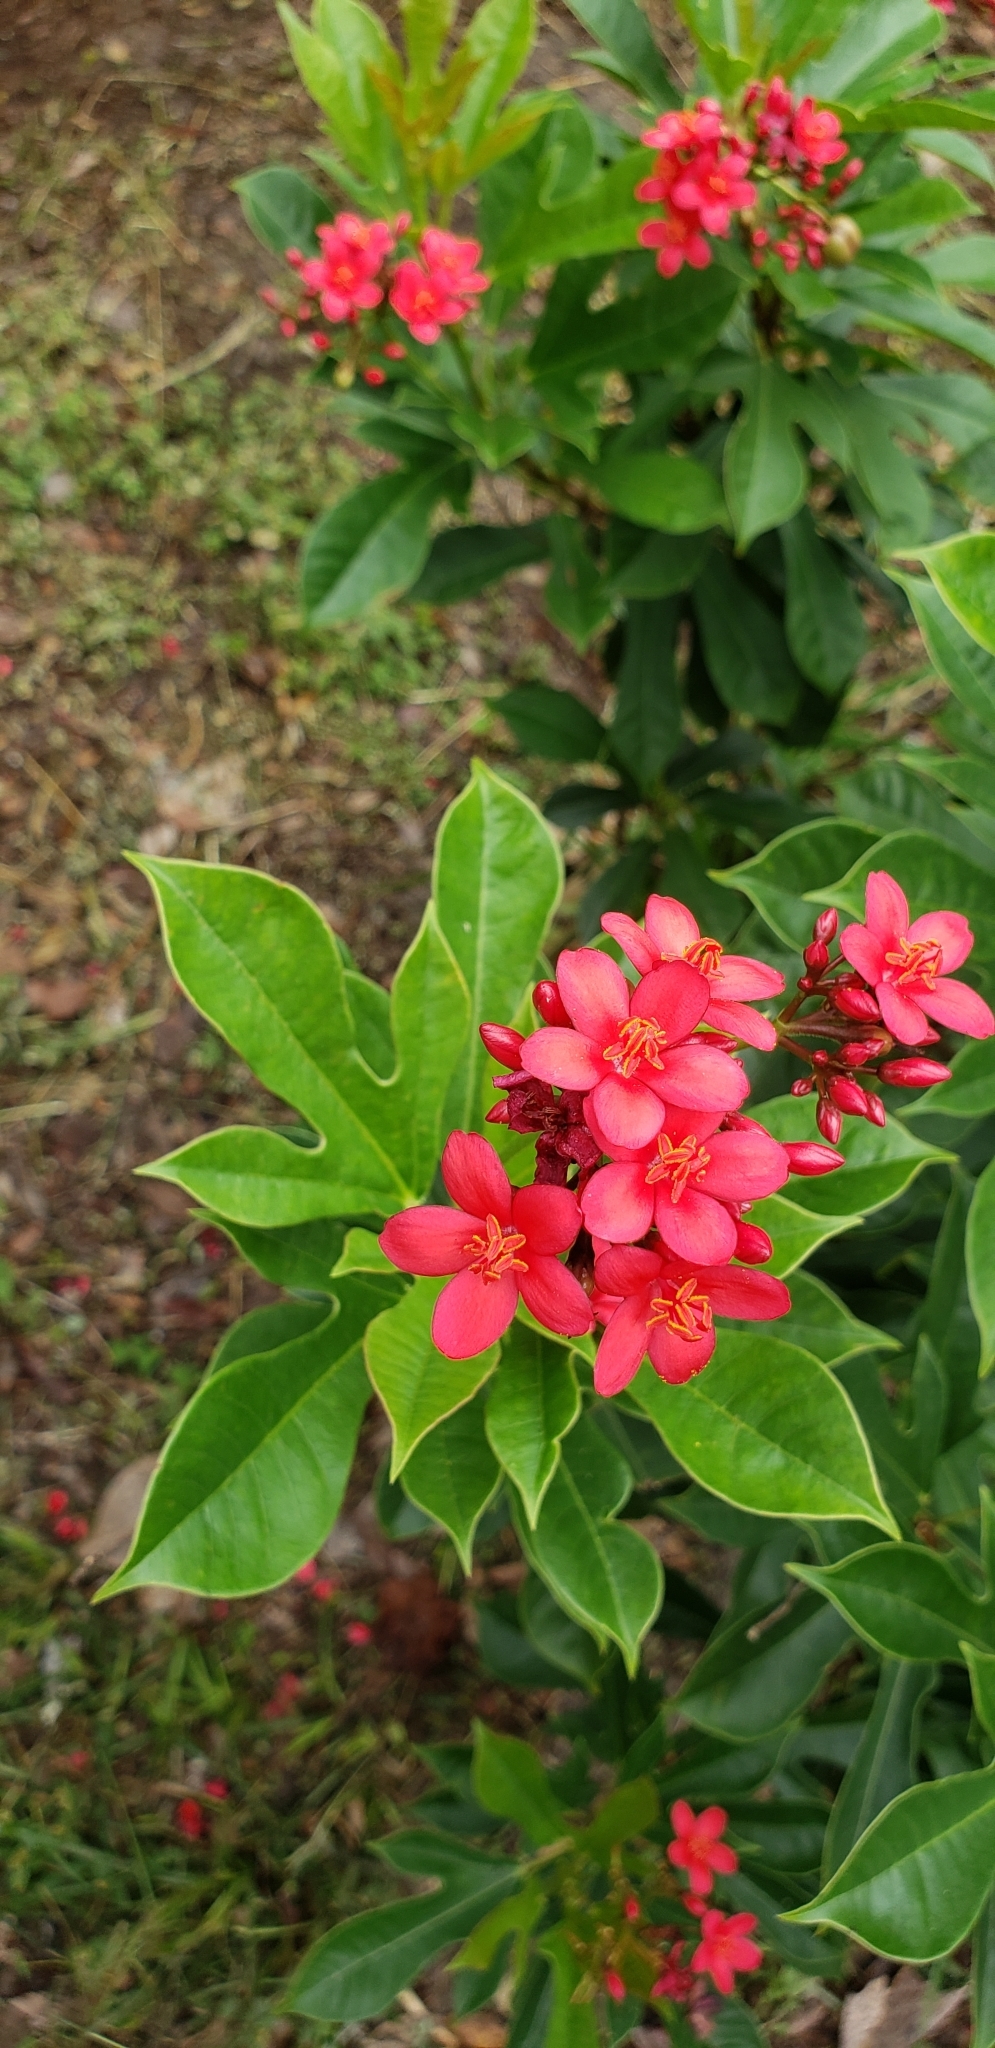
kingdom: Plantae
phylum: Tracheophyta
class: Magnoliopsida
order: Malpighiales
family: Euphorbiaceae
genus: Jatropha
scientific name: Jatropha integerrima
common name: Peregrina
